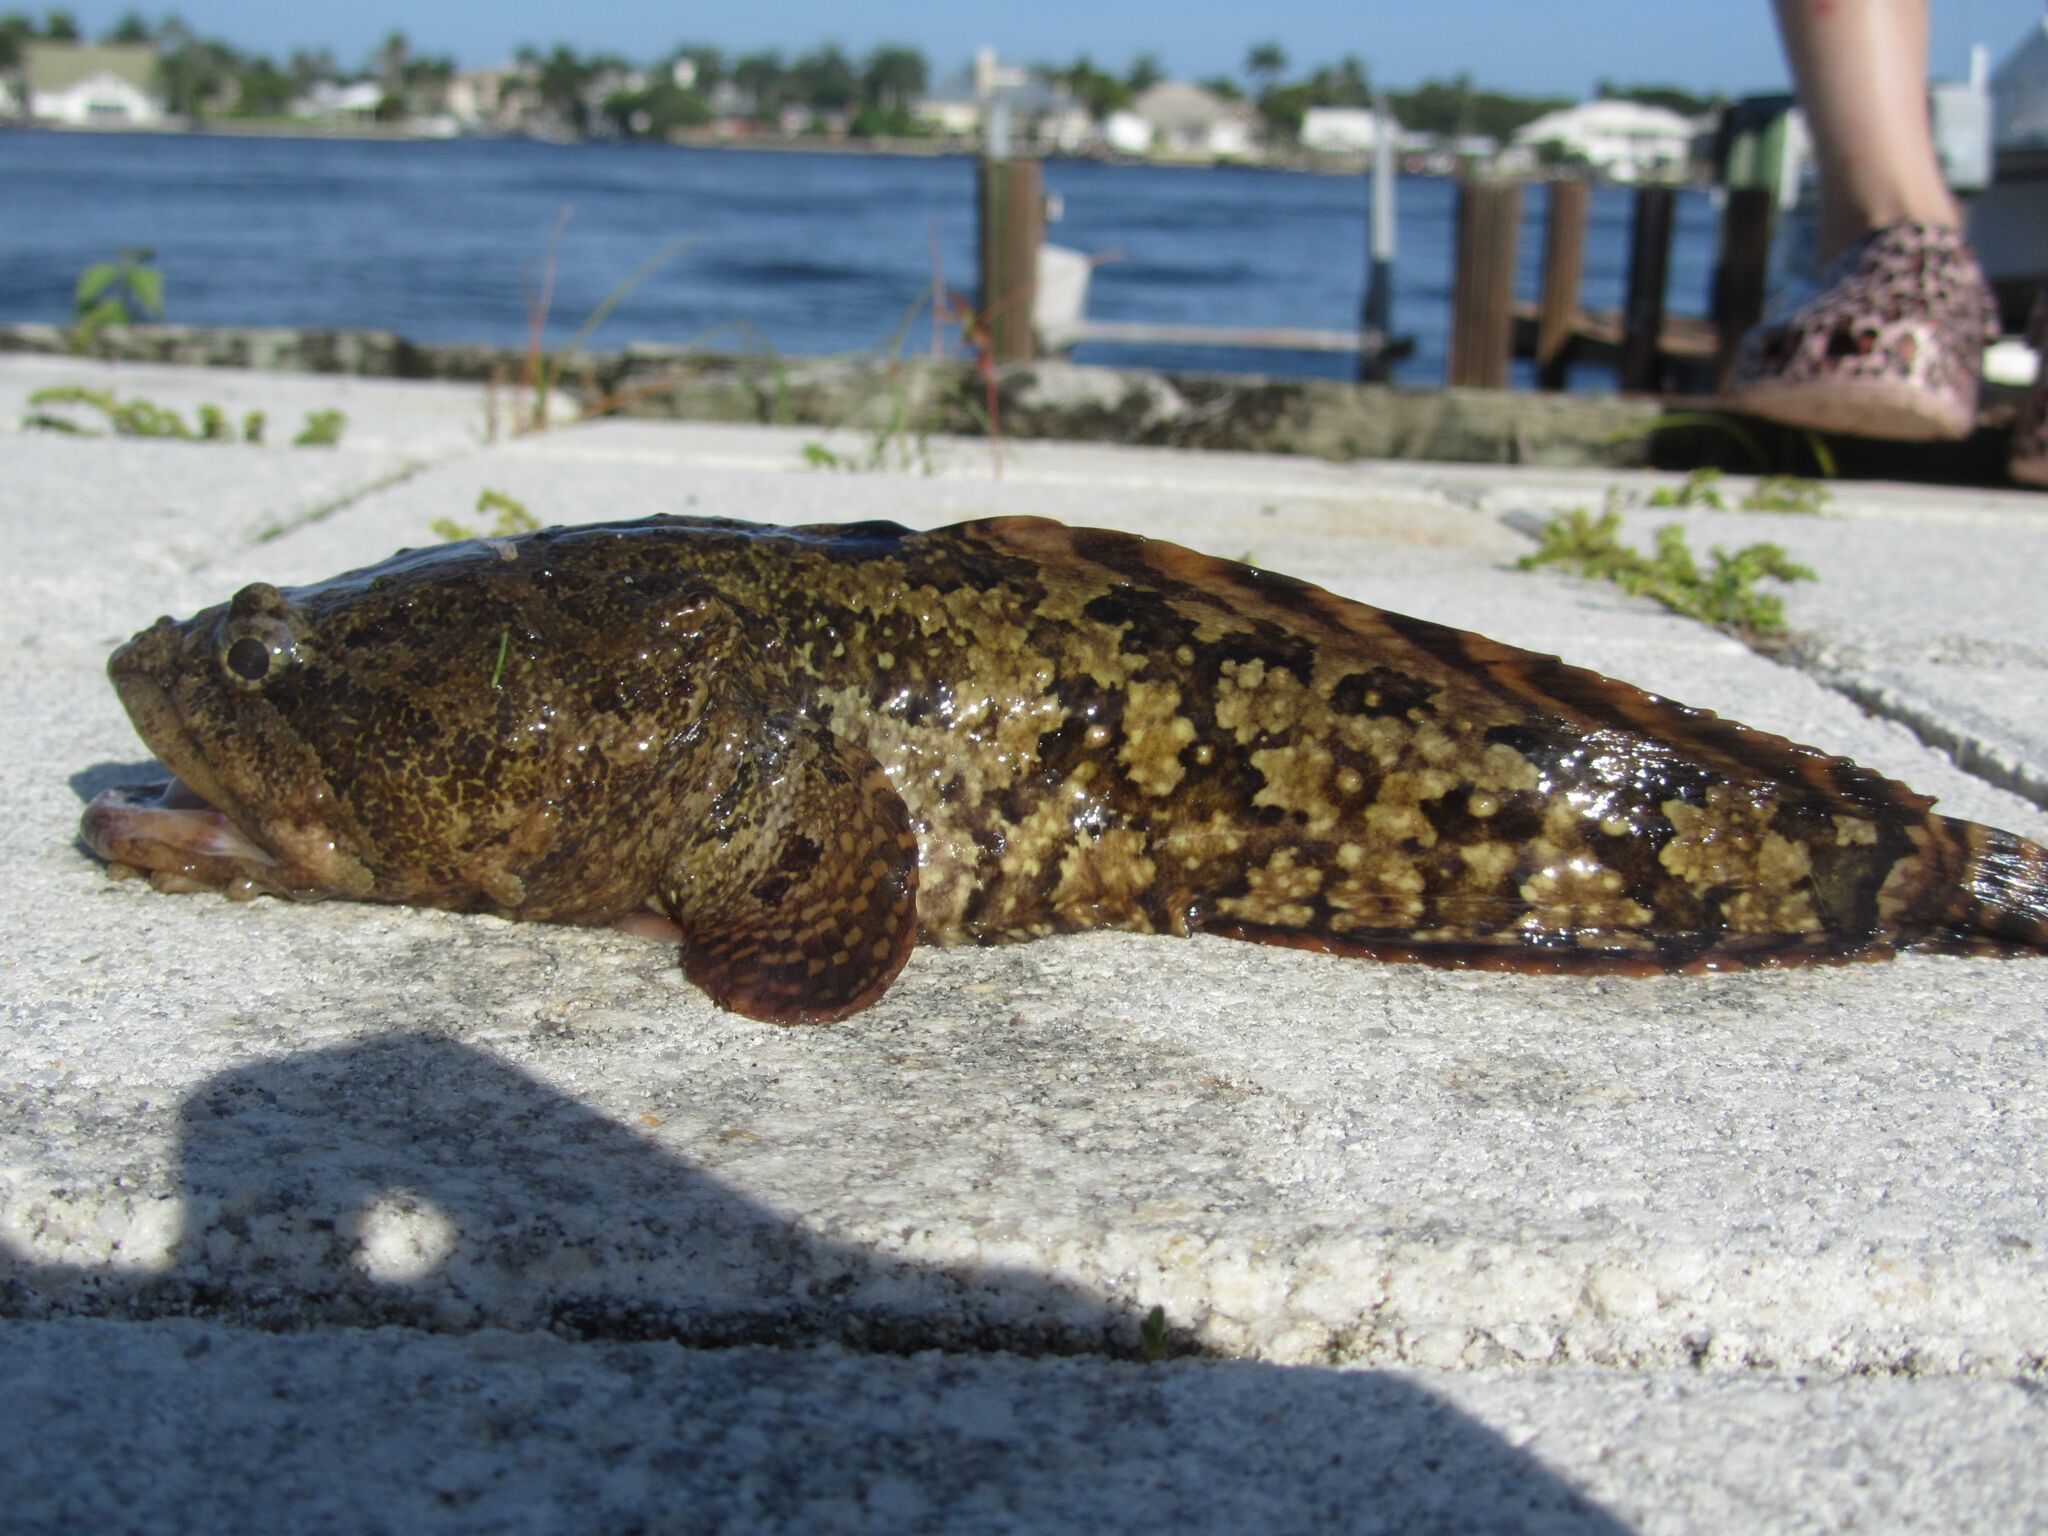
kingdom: Animalia
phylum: Chordata
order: Batrachoidiformes
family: Batrachoididae
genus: Opsanus
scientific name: Opsanus beta
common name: Gulf toadfish
